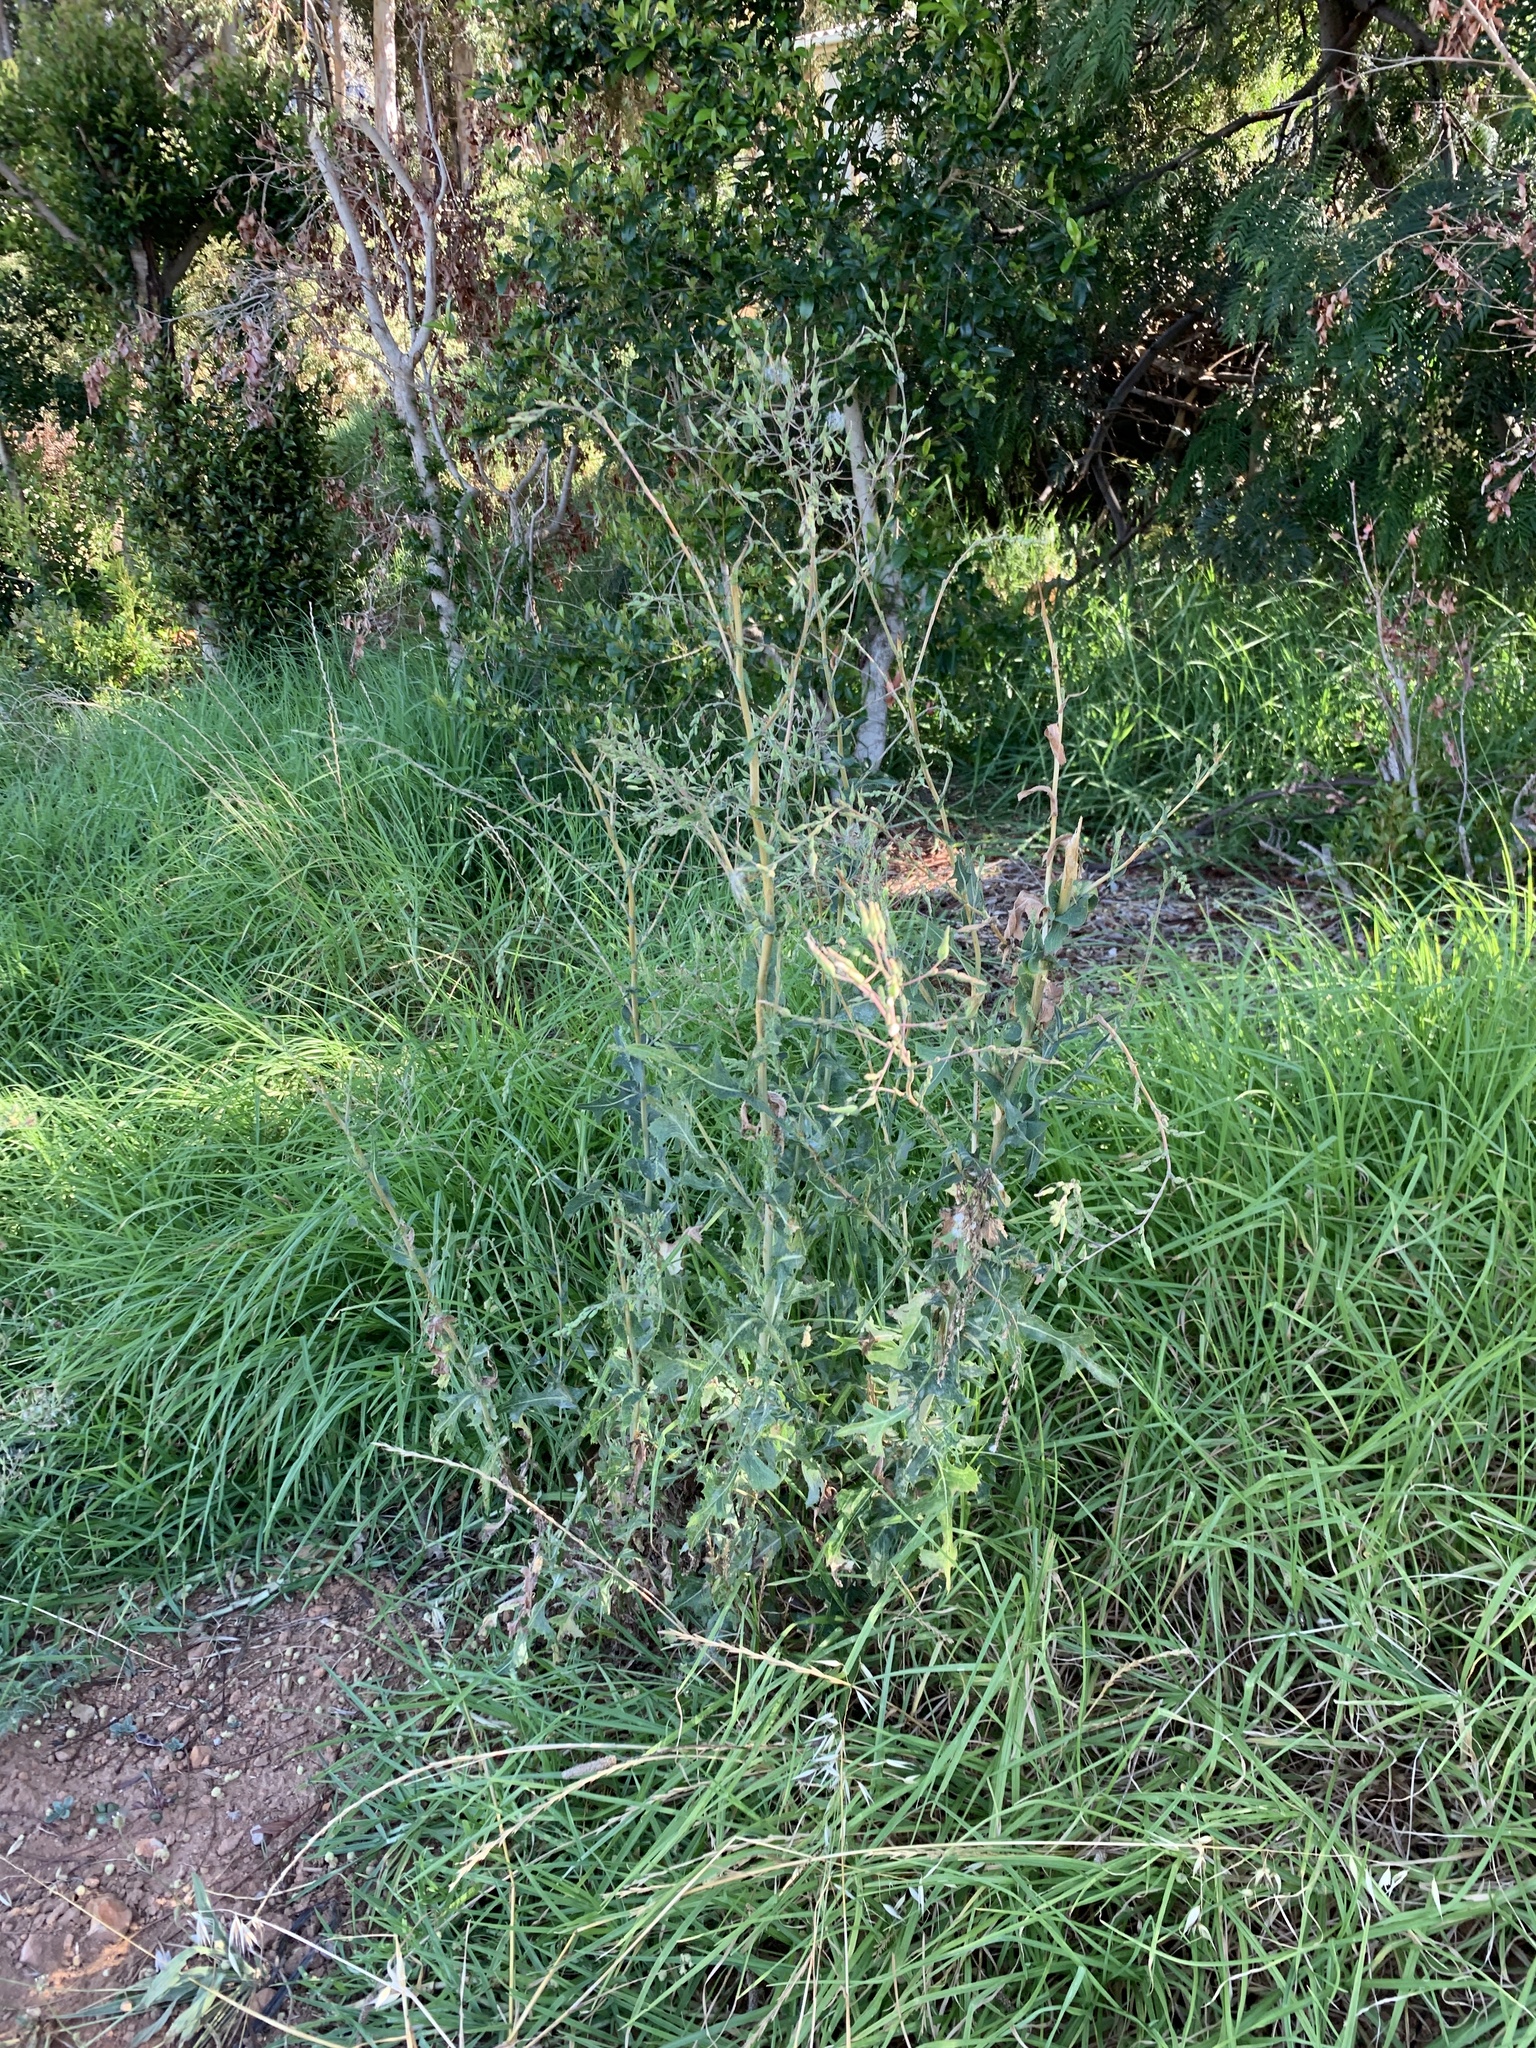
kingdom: Plantae
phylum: Tracheophyta
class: Magnoliopsida
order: Asterales
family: Asteraceae
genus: Lactuca
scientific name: Lactuca serriola
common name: Prickly lettuce
